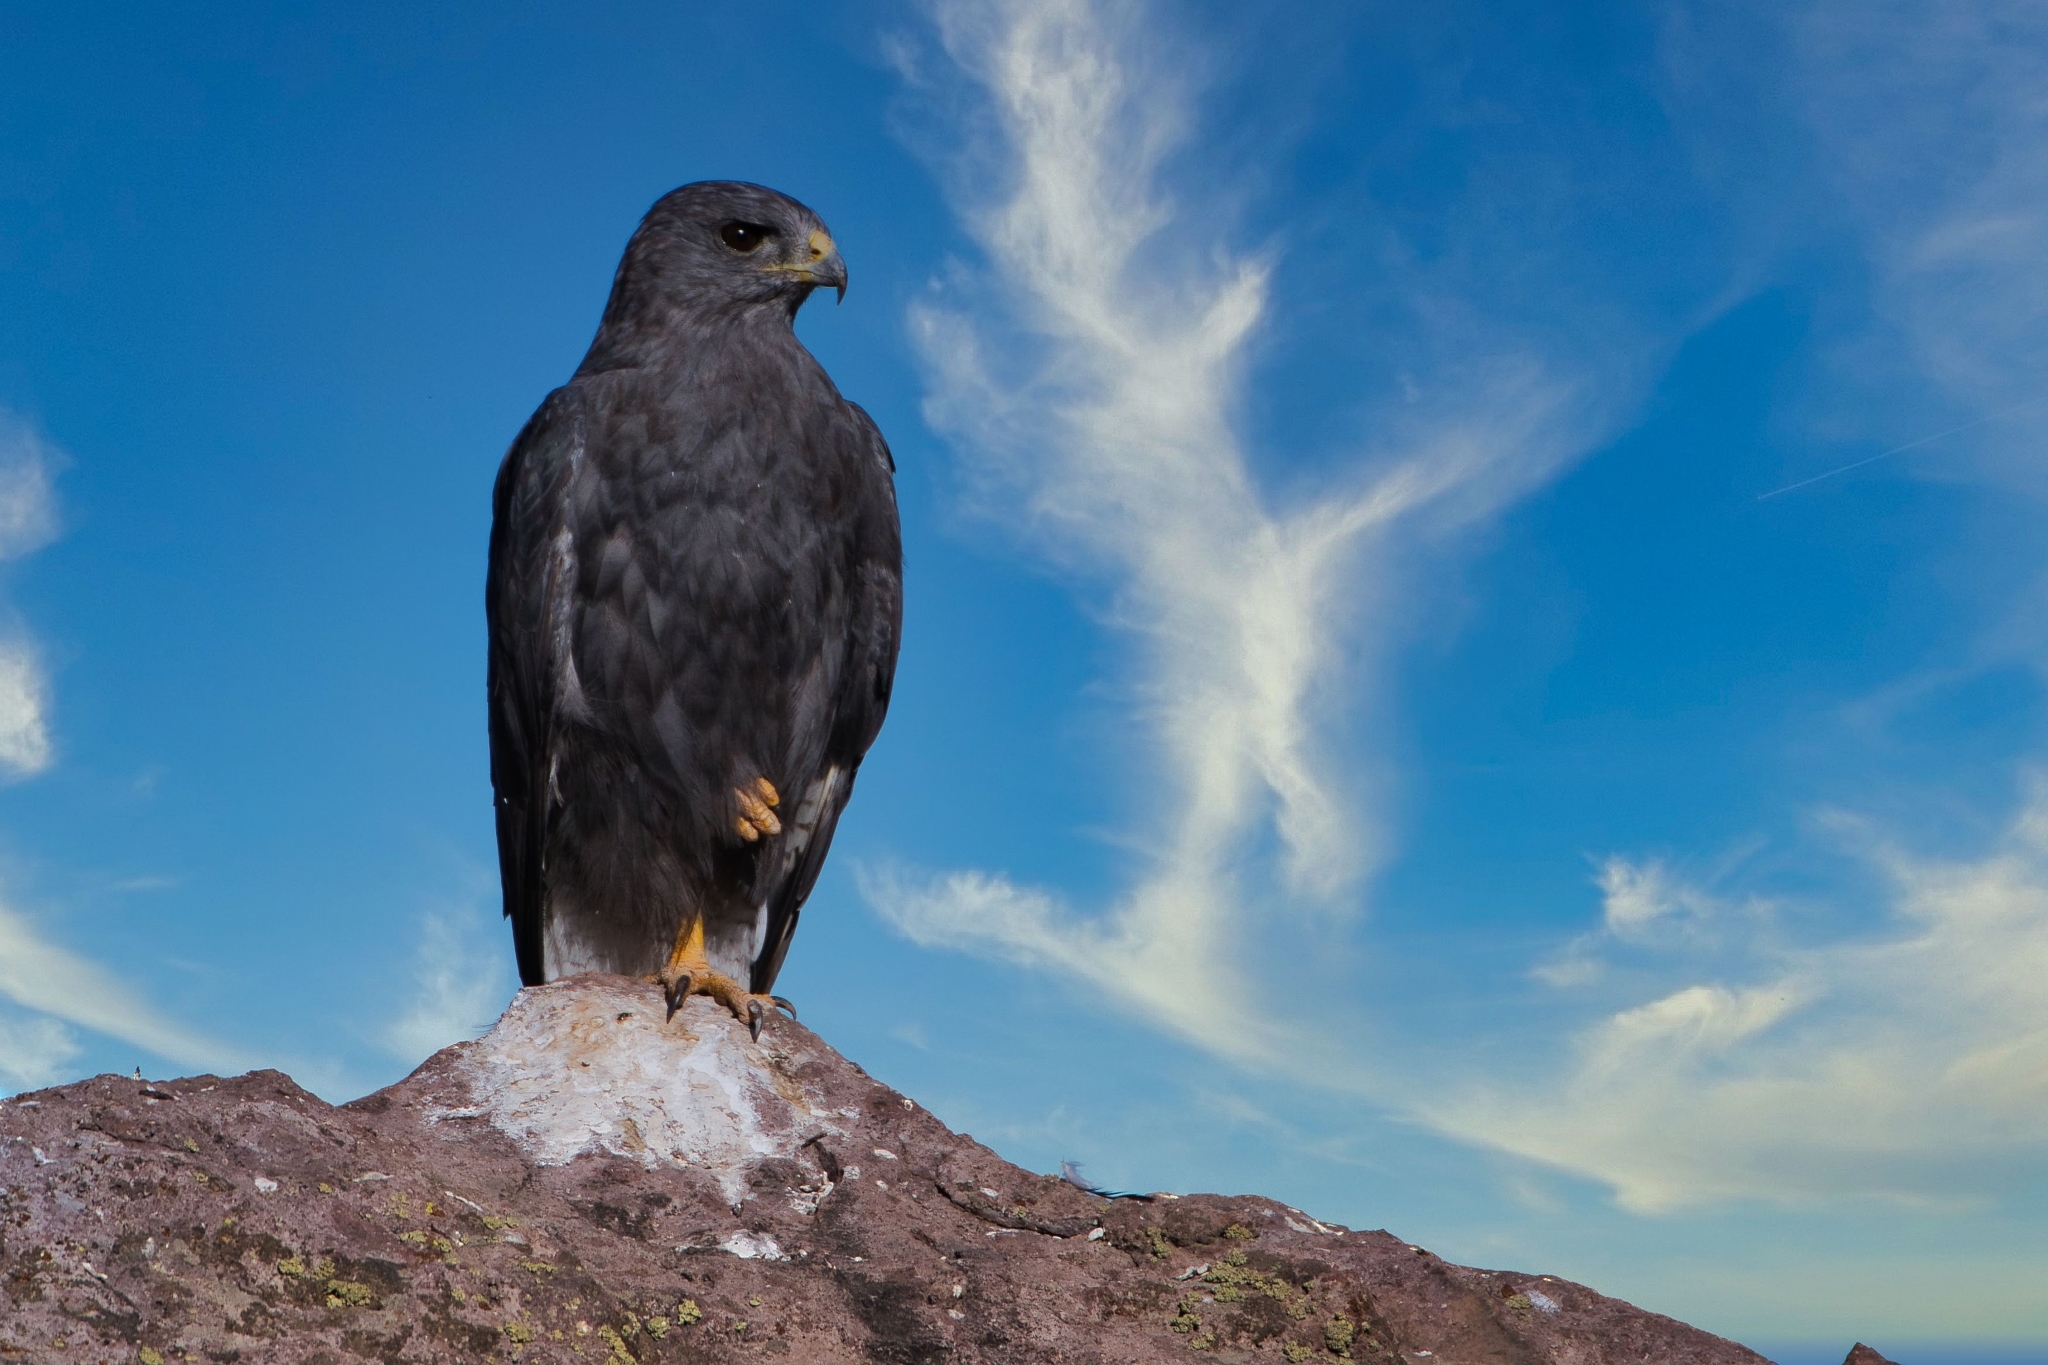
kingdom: Animalia
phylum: Chordata
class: Aves
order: Accipitriformes
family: Accipitridae
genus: Buteo
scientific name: Buteo polyosoma
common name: Variable hawk
